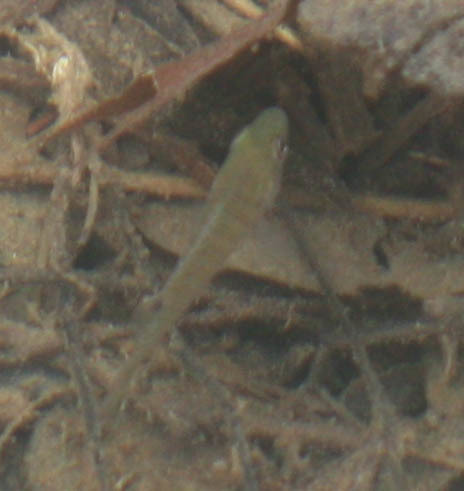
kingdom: Animalia
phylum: Chordata
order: Perciformes
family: Centrarchidae
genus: Lepomis
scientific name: Lepomis macrochirus
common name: Bluegill
